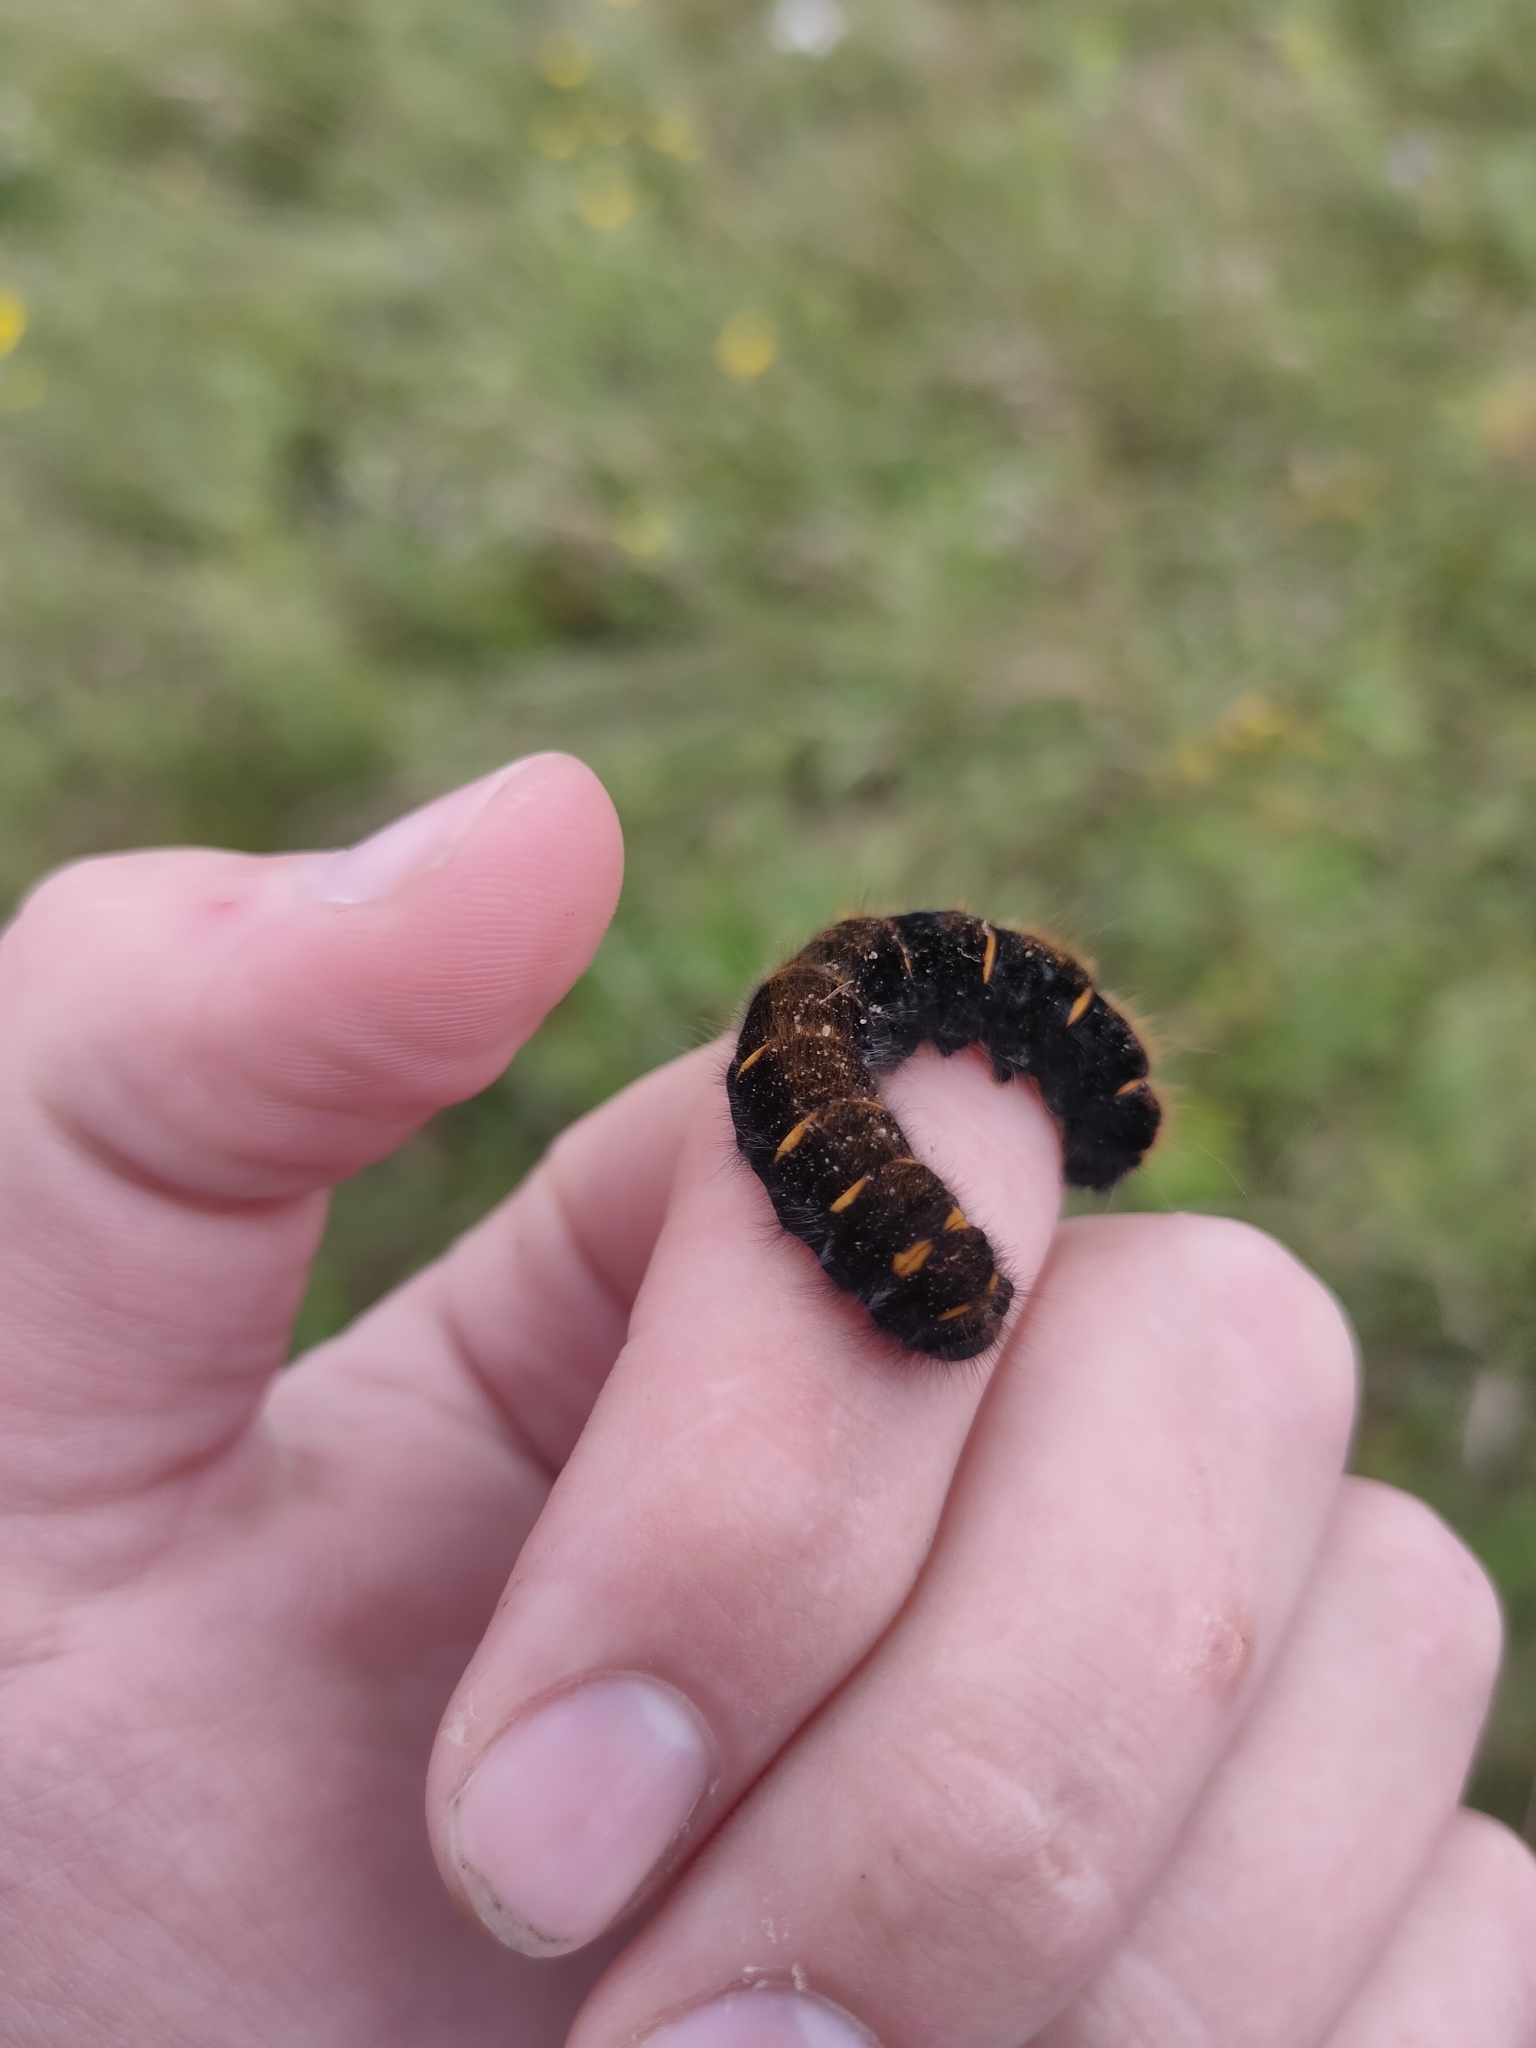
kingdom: Animalia
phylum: Arthropoda
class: Insecta
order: Lepidoptera
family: Lasiocampidae
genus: Macrothylacia
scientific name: Macrothylacia rubi
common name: Fox moth
